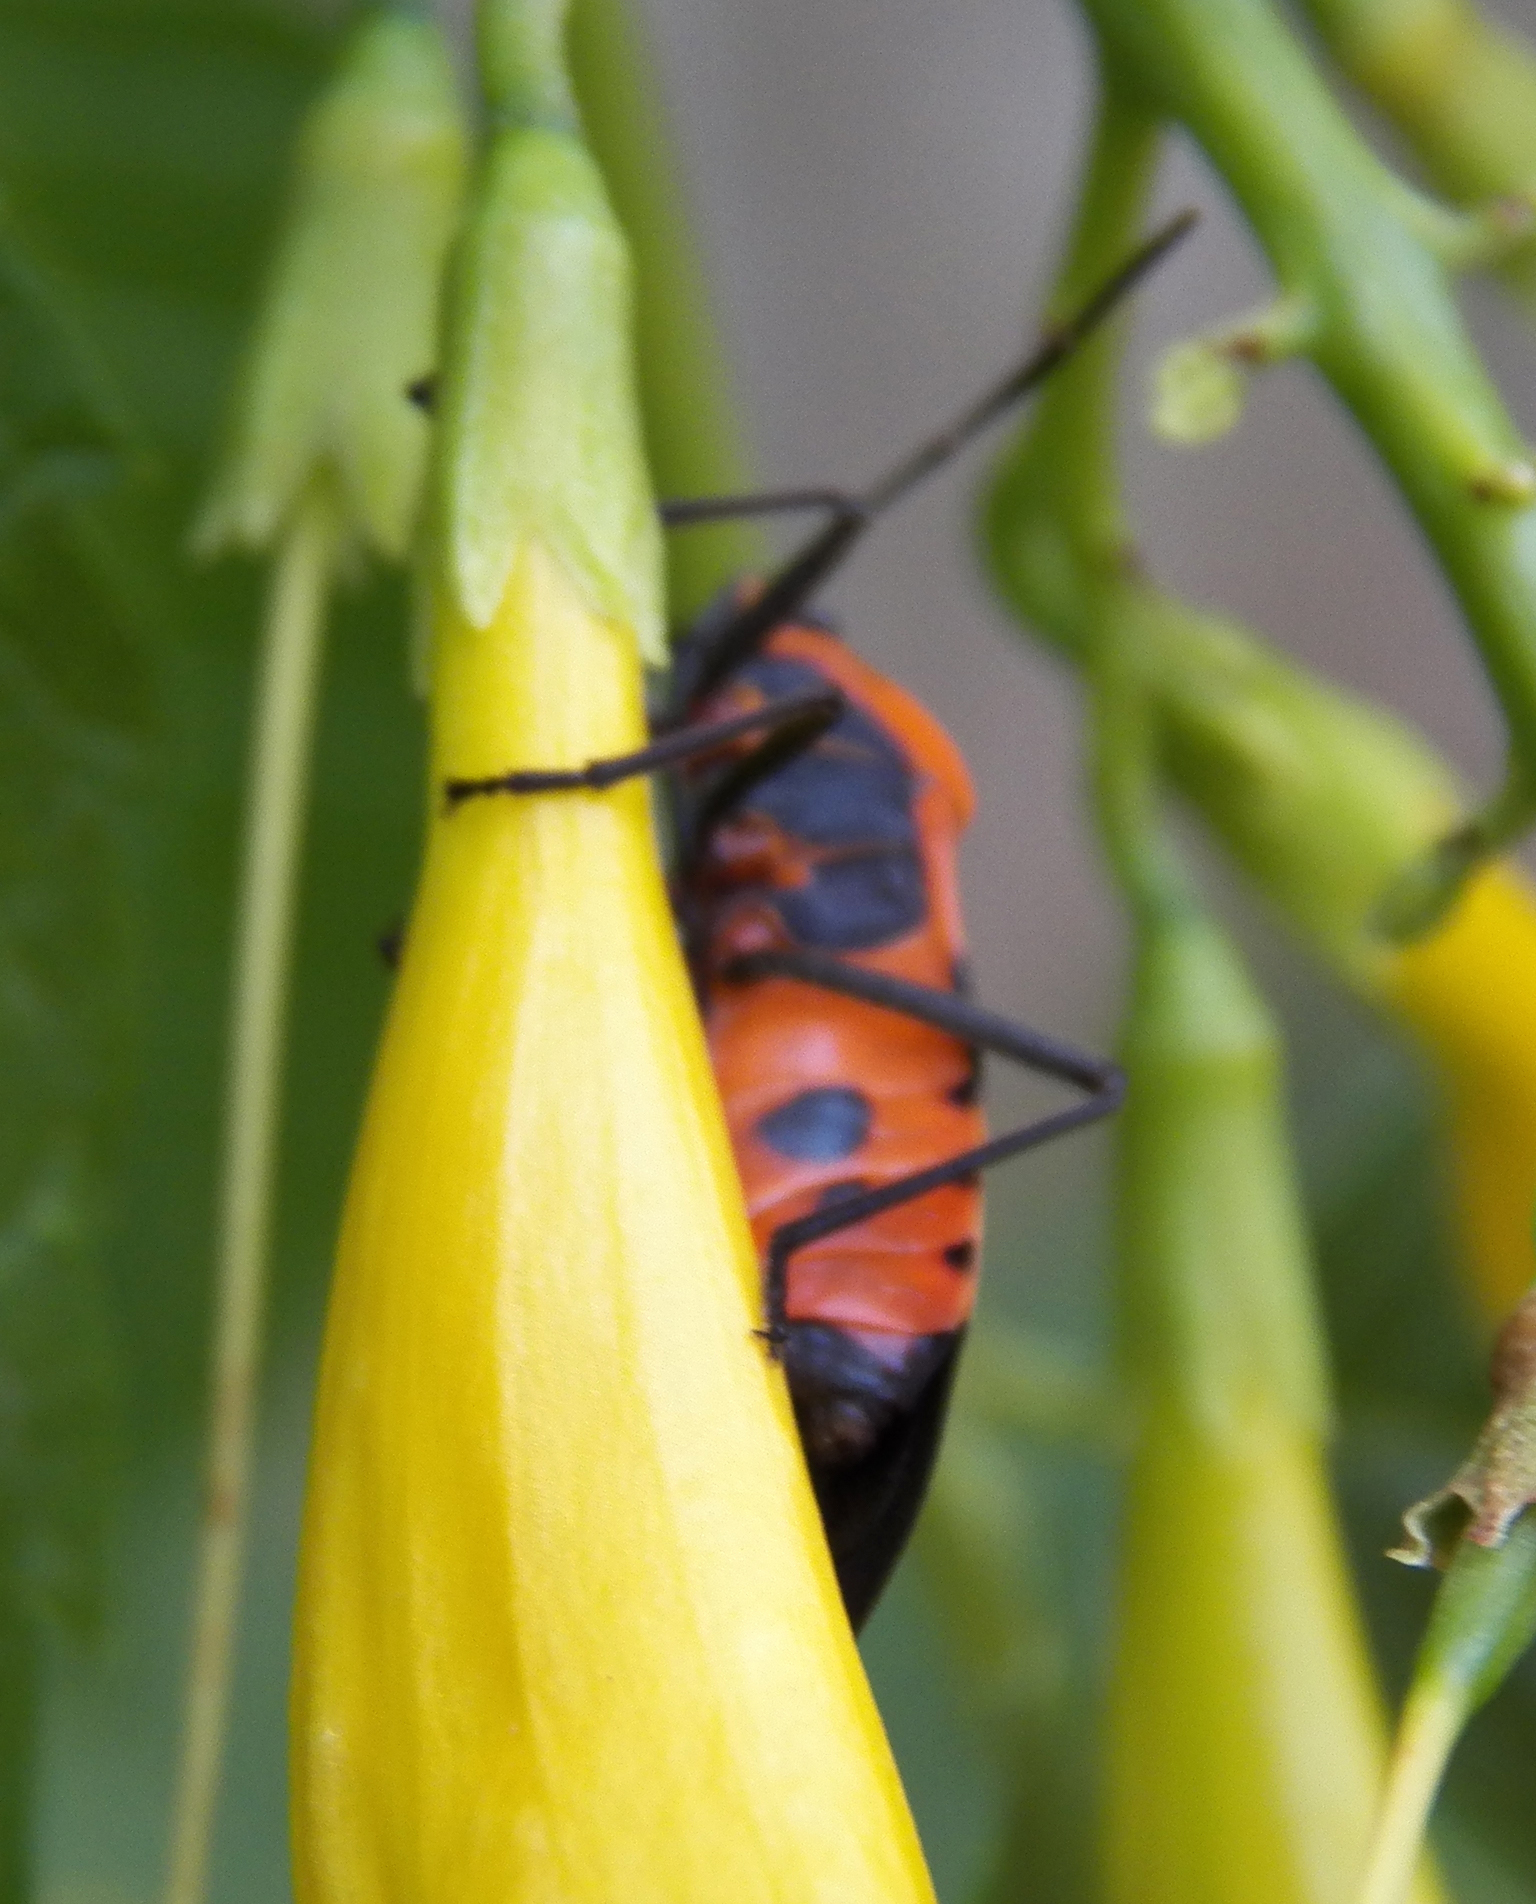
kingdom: Animalia
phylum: Arthropoda
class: Insecta
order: Hemiptera
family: Lygaeidae
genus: Oncopeltus
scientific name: Oncopeltus fasciatus
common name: Large milkweed bug
